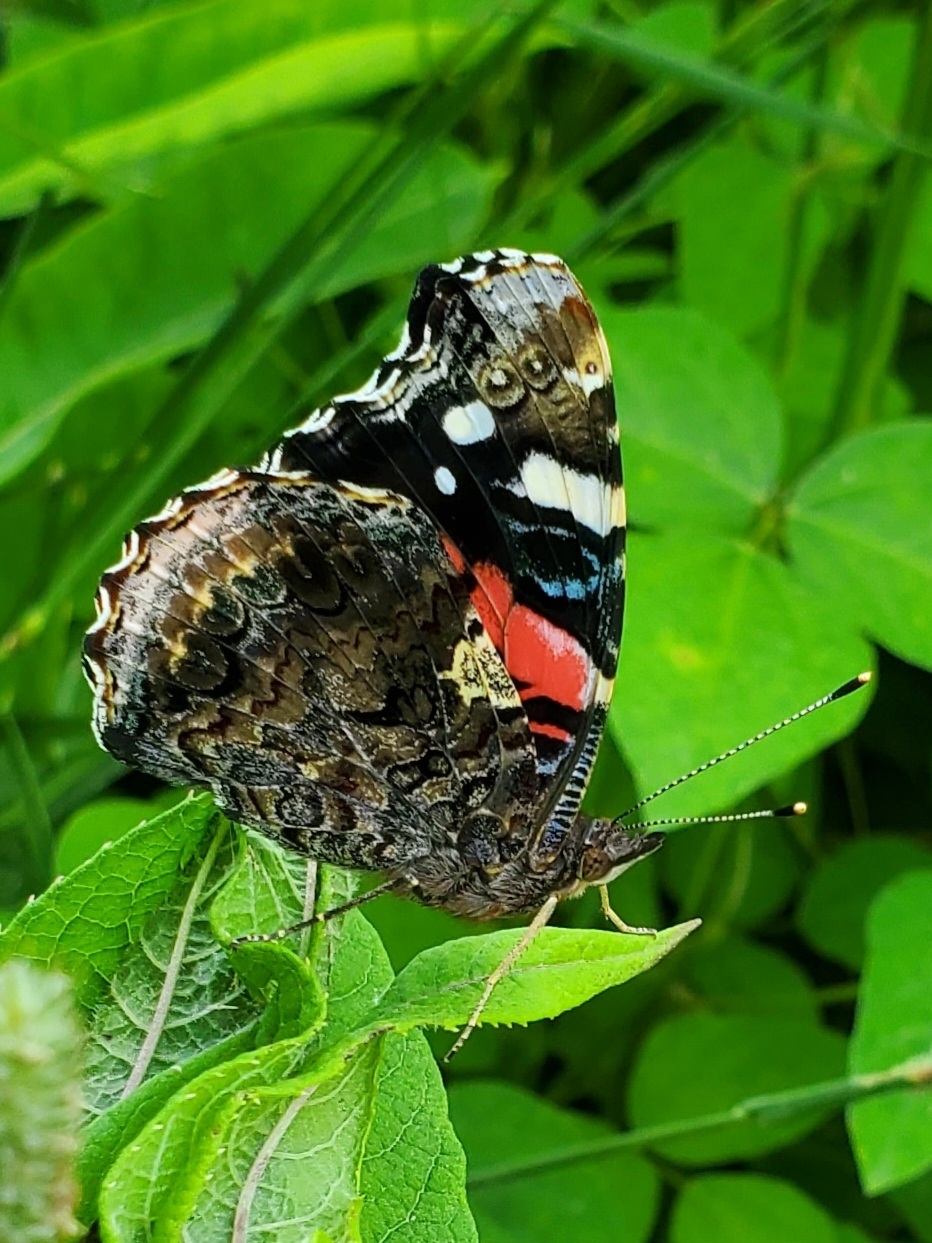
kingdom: Animalia
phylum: Arthropoda
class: Insecta
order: Lepidoptera
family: Nymphalidae
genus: Vanessa
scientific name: Vanessa atalanta
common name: Red admiral
